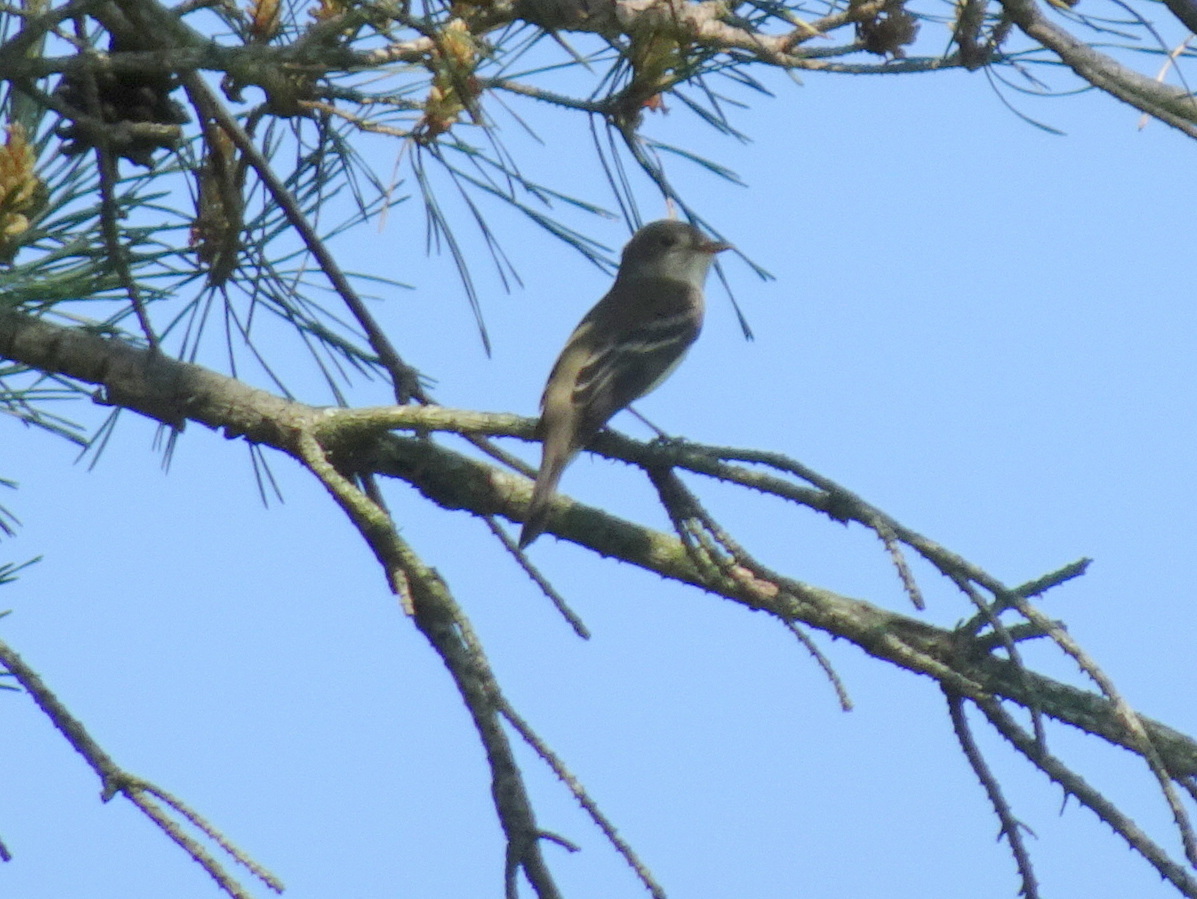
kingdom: Animalia
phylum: Chordata
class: Aves
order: Passeriformes
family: Tyrannidae
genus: Empidonax
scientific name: Empidonax traillii
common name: Willow flycatcher
